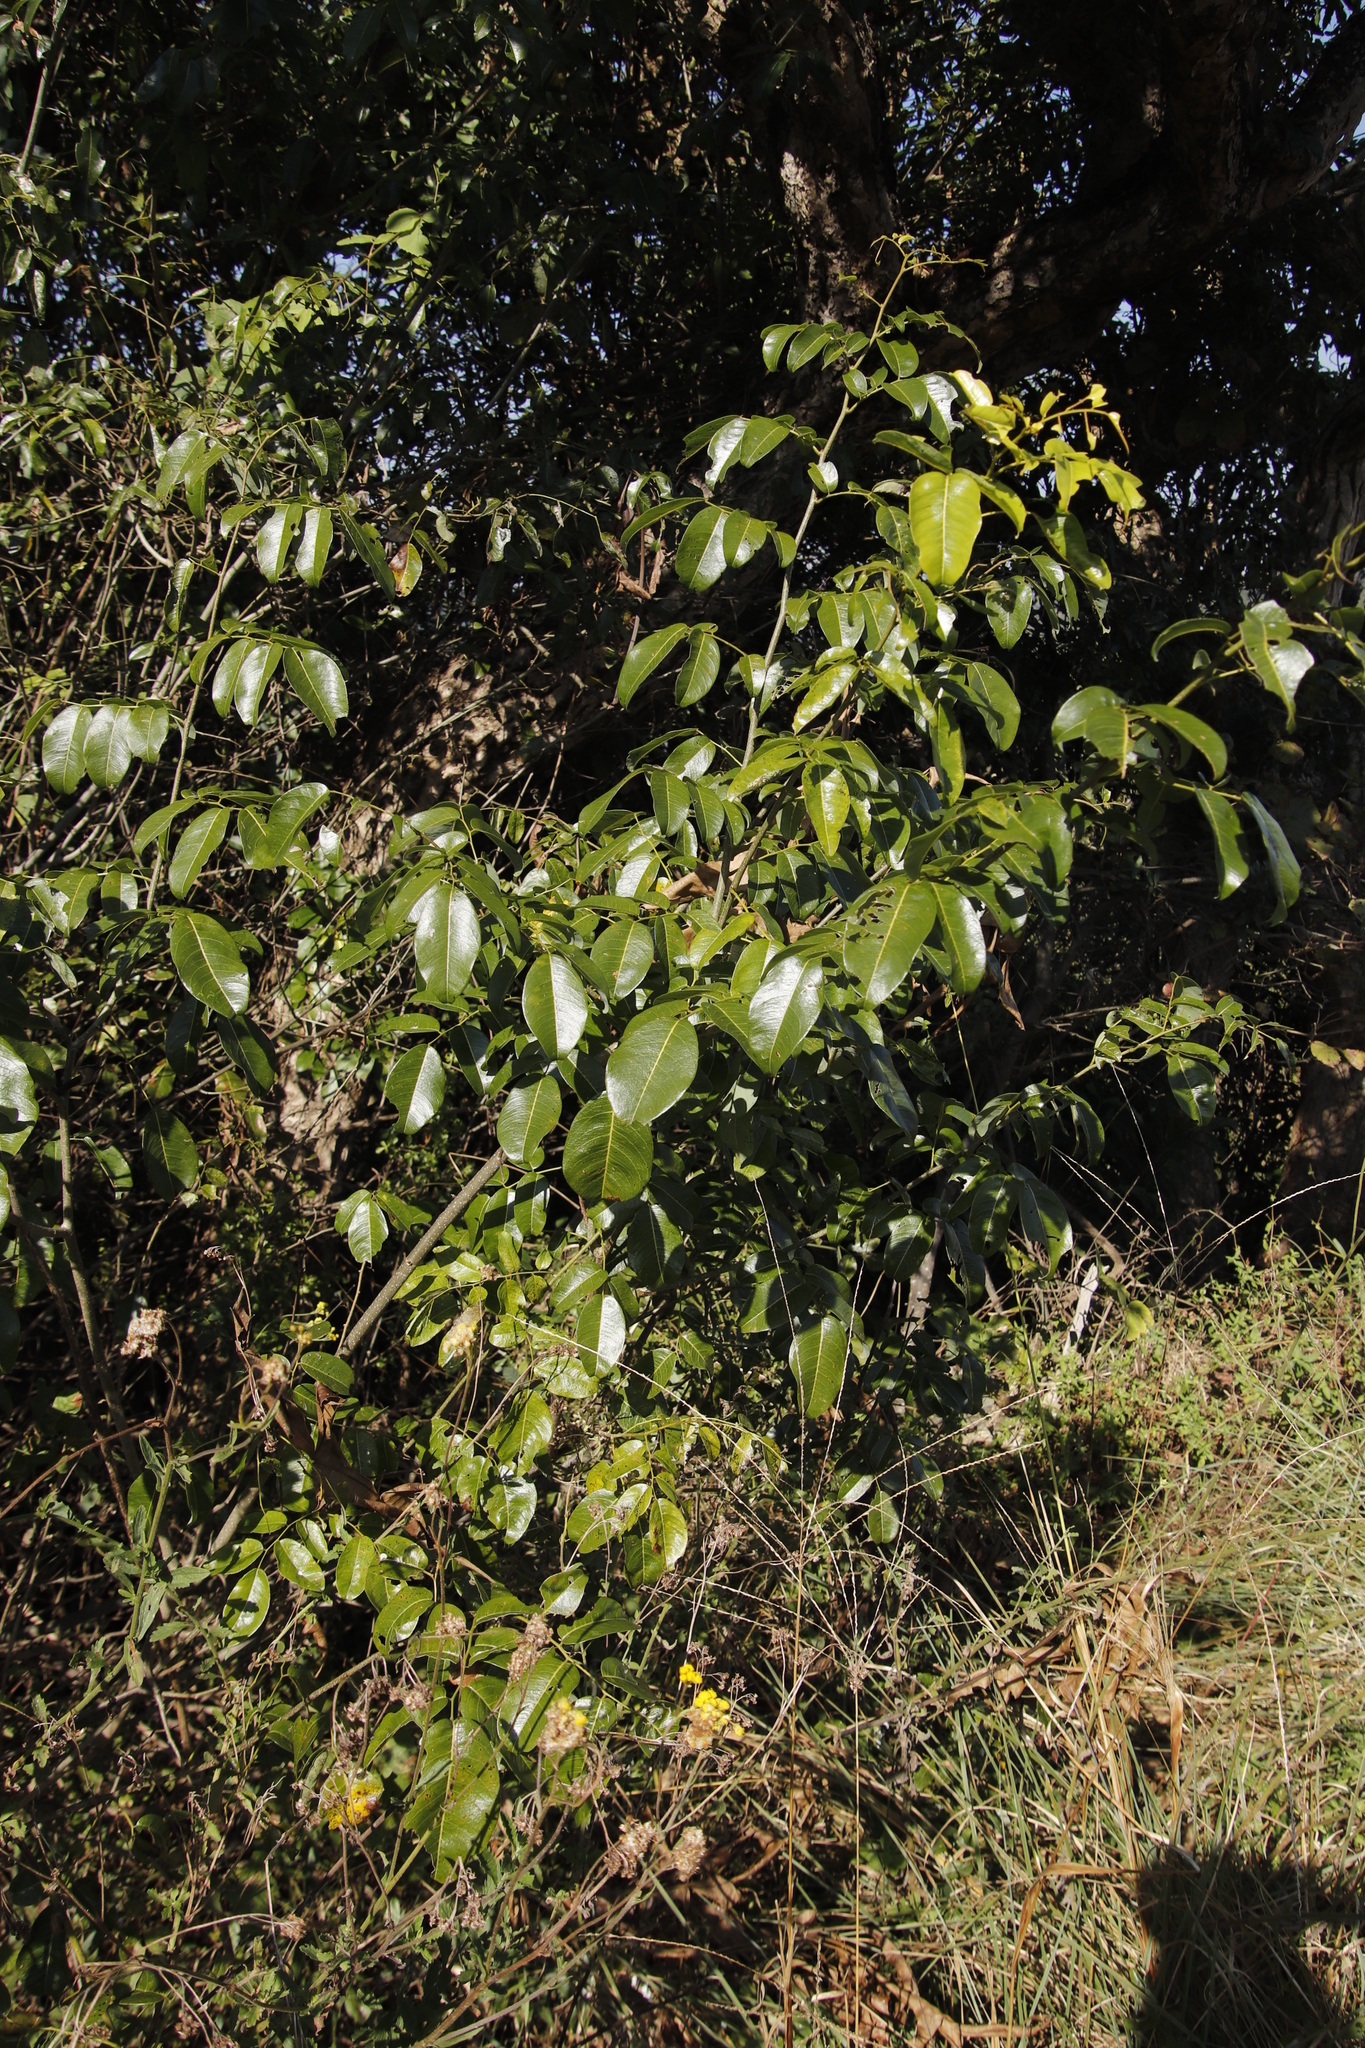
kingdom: Plantae
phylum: Tracheophyta
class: Magnoliopsida
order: Fabales
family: Fabaceae
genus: Dalbergia
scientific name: Dalbergia obovata
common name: Climbing flat-bean
